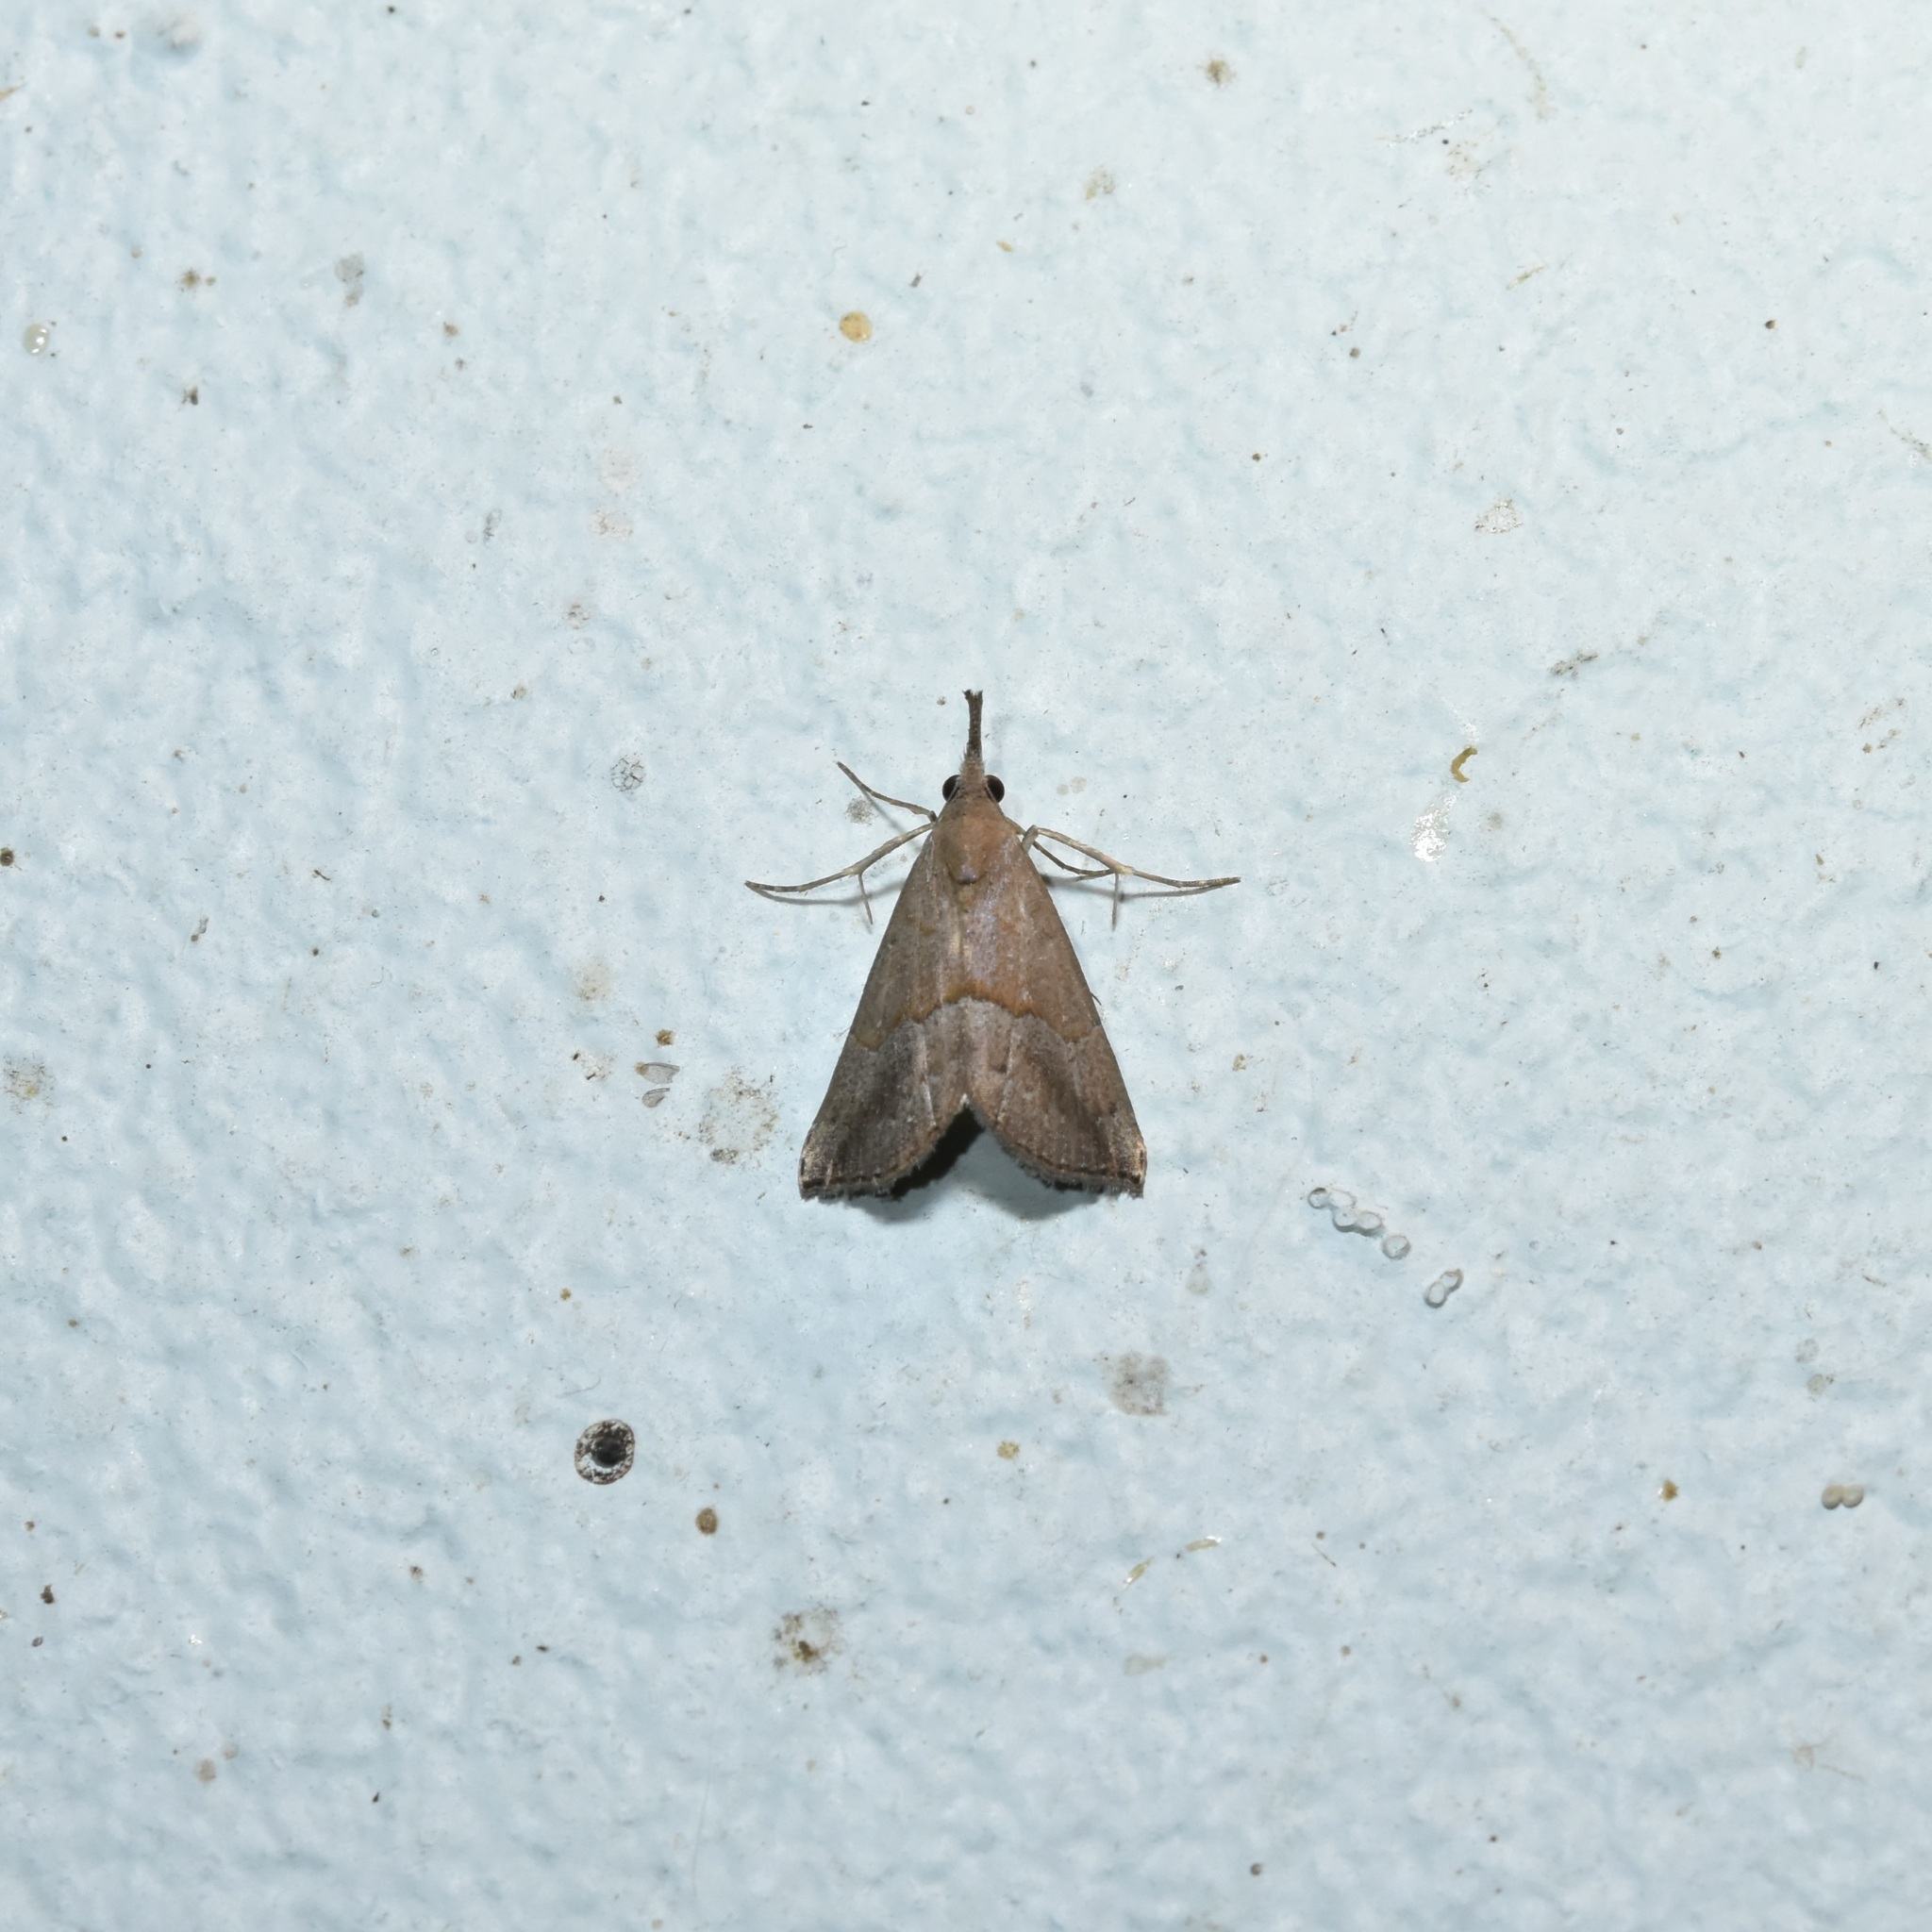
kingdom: Animalia
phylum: Arthropoda
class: Insecta
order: Lepidoptera
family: Erebidae
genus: Hypena
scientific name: Hypena porrectalis
